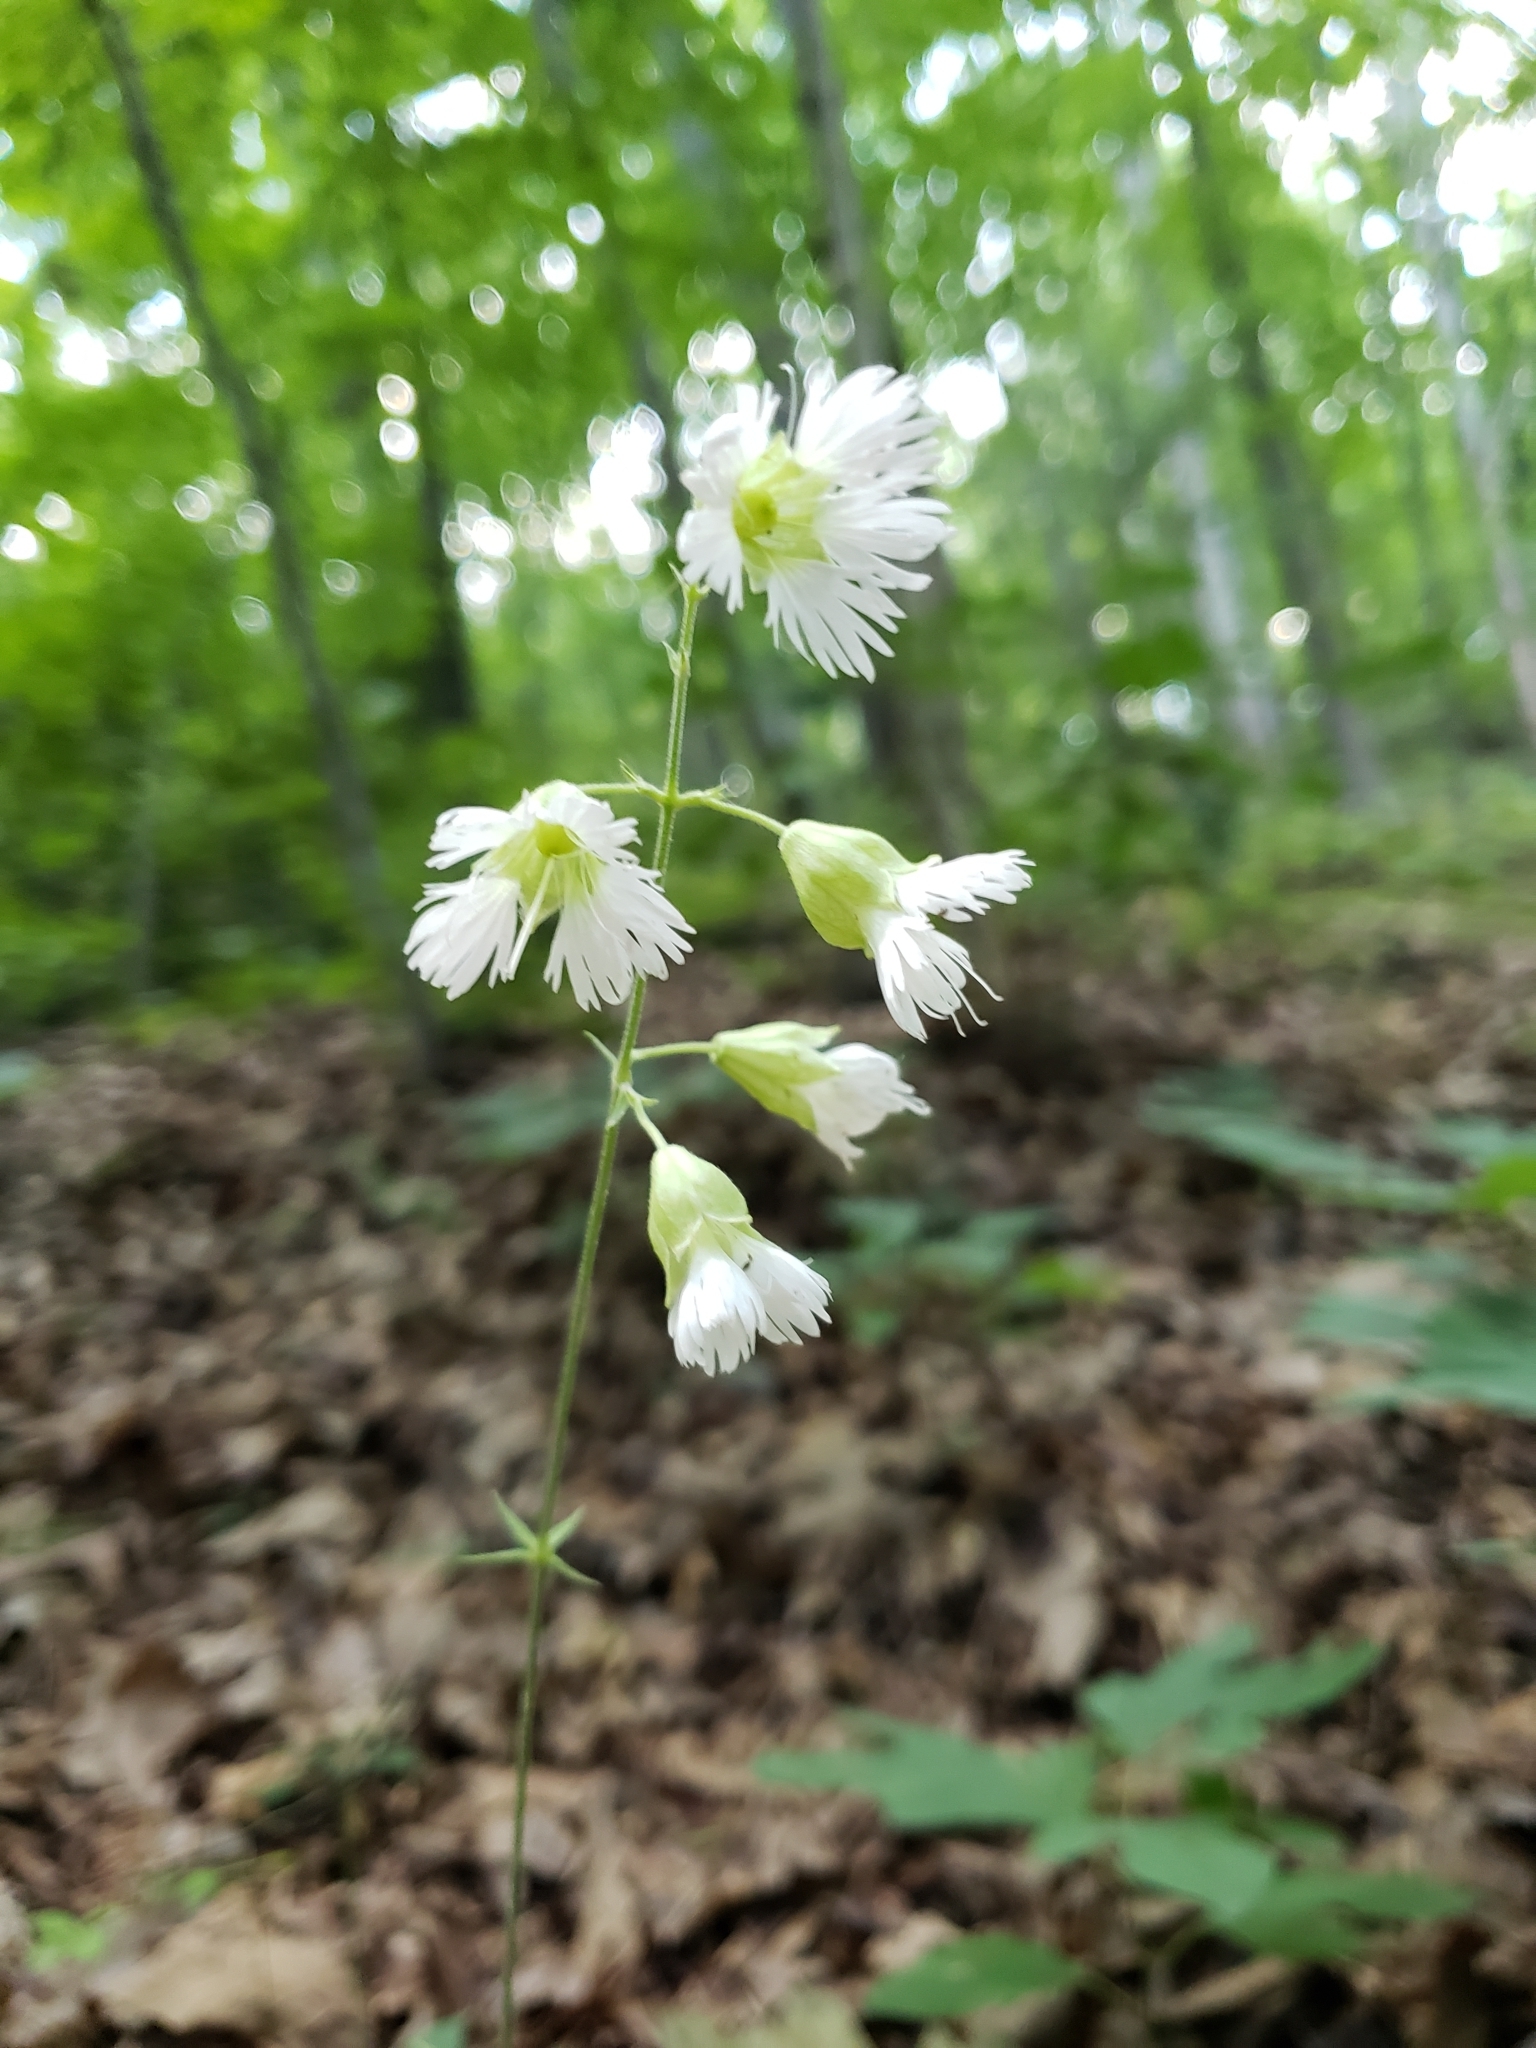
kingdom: Plantae
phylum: Tracheophyta
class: Magnoliopsida
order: Caryophyllales
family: Caryophyllaceae
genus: Silene
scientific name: Silene stellata
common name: Starry campion
